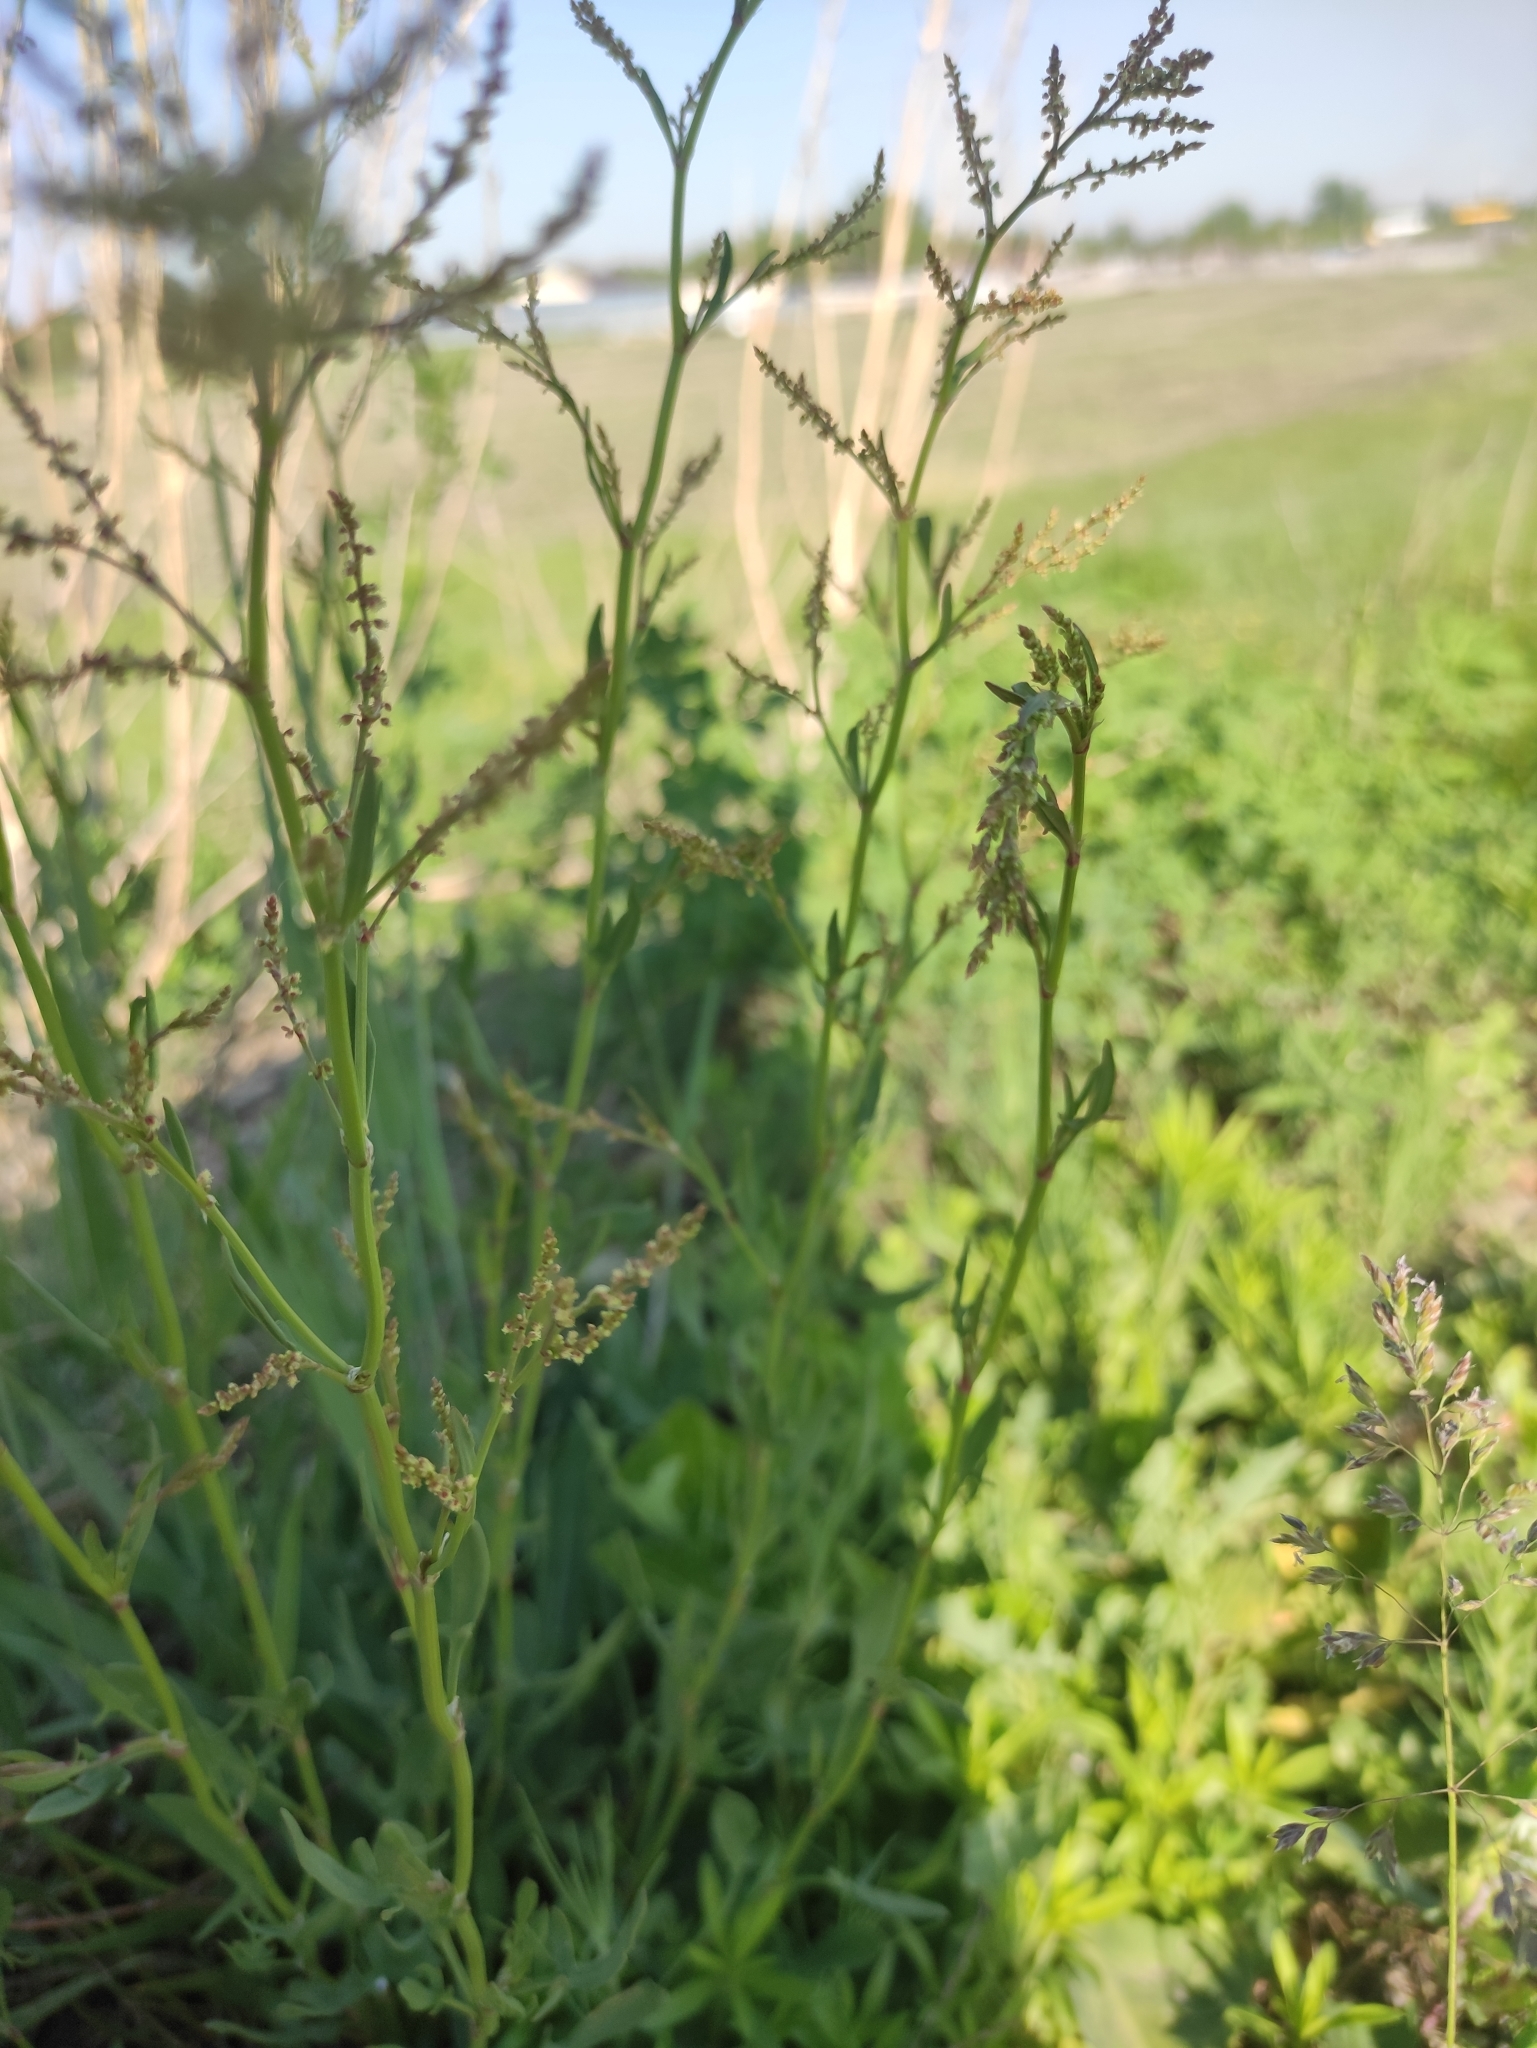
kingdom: Plantae
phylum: Tracheophyta
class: Magnoliopsida
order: Caryophyllales
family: Polygonaceae
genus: Rumex
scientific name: Rumex acetosella
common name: Common sheep sorrel
